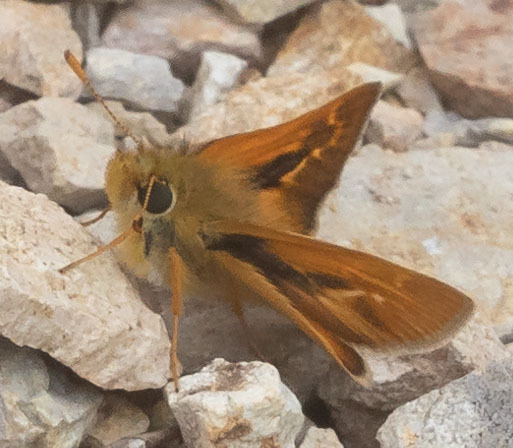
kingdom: Animalia
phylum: Arthropoda
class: Insecta
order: Lepidoptera
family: Hesperiidae
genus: Ochlodes
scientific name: Ochlodes agricola
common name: Rural skipper
